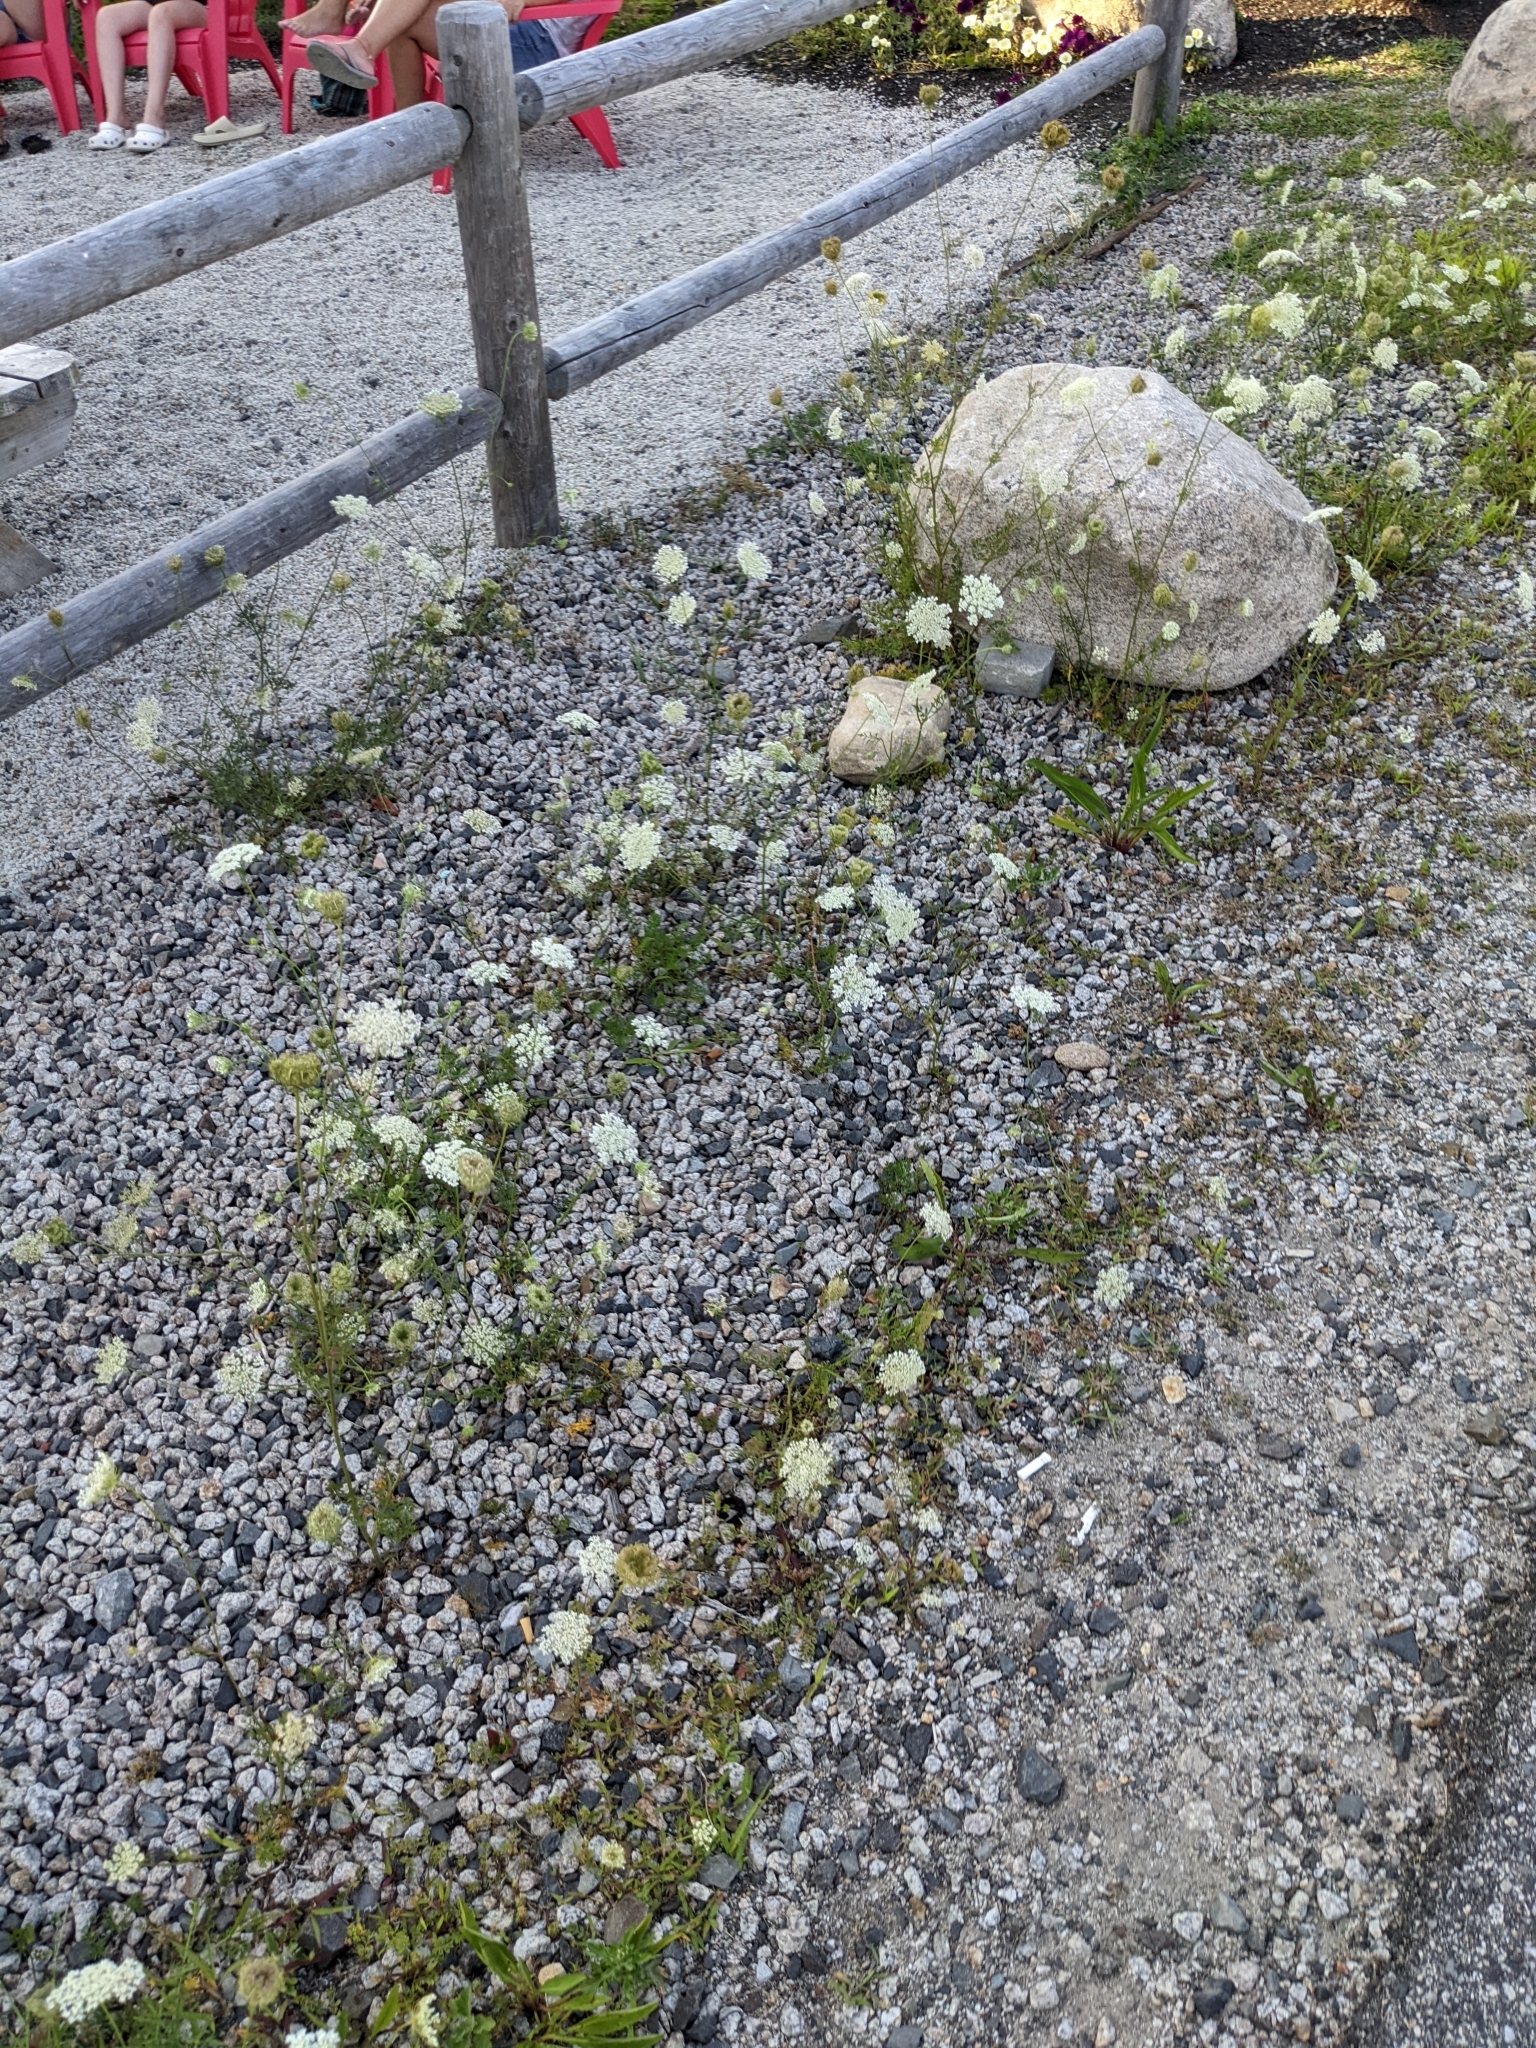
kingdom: Plantae
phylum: Tracheophyta
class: Magnoliopsida
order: Apiales
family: Apiaceae
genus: Daucus
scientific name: Daucus carota
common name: Wild carrot
